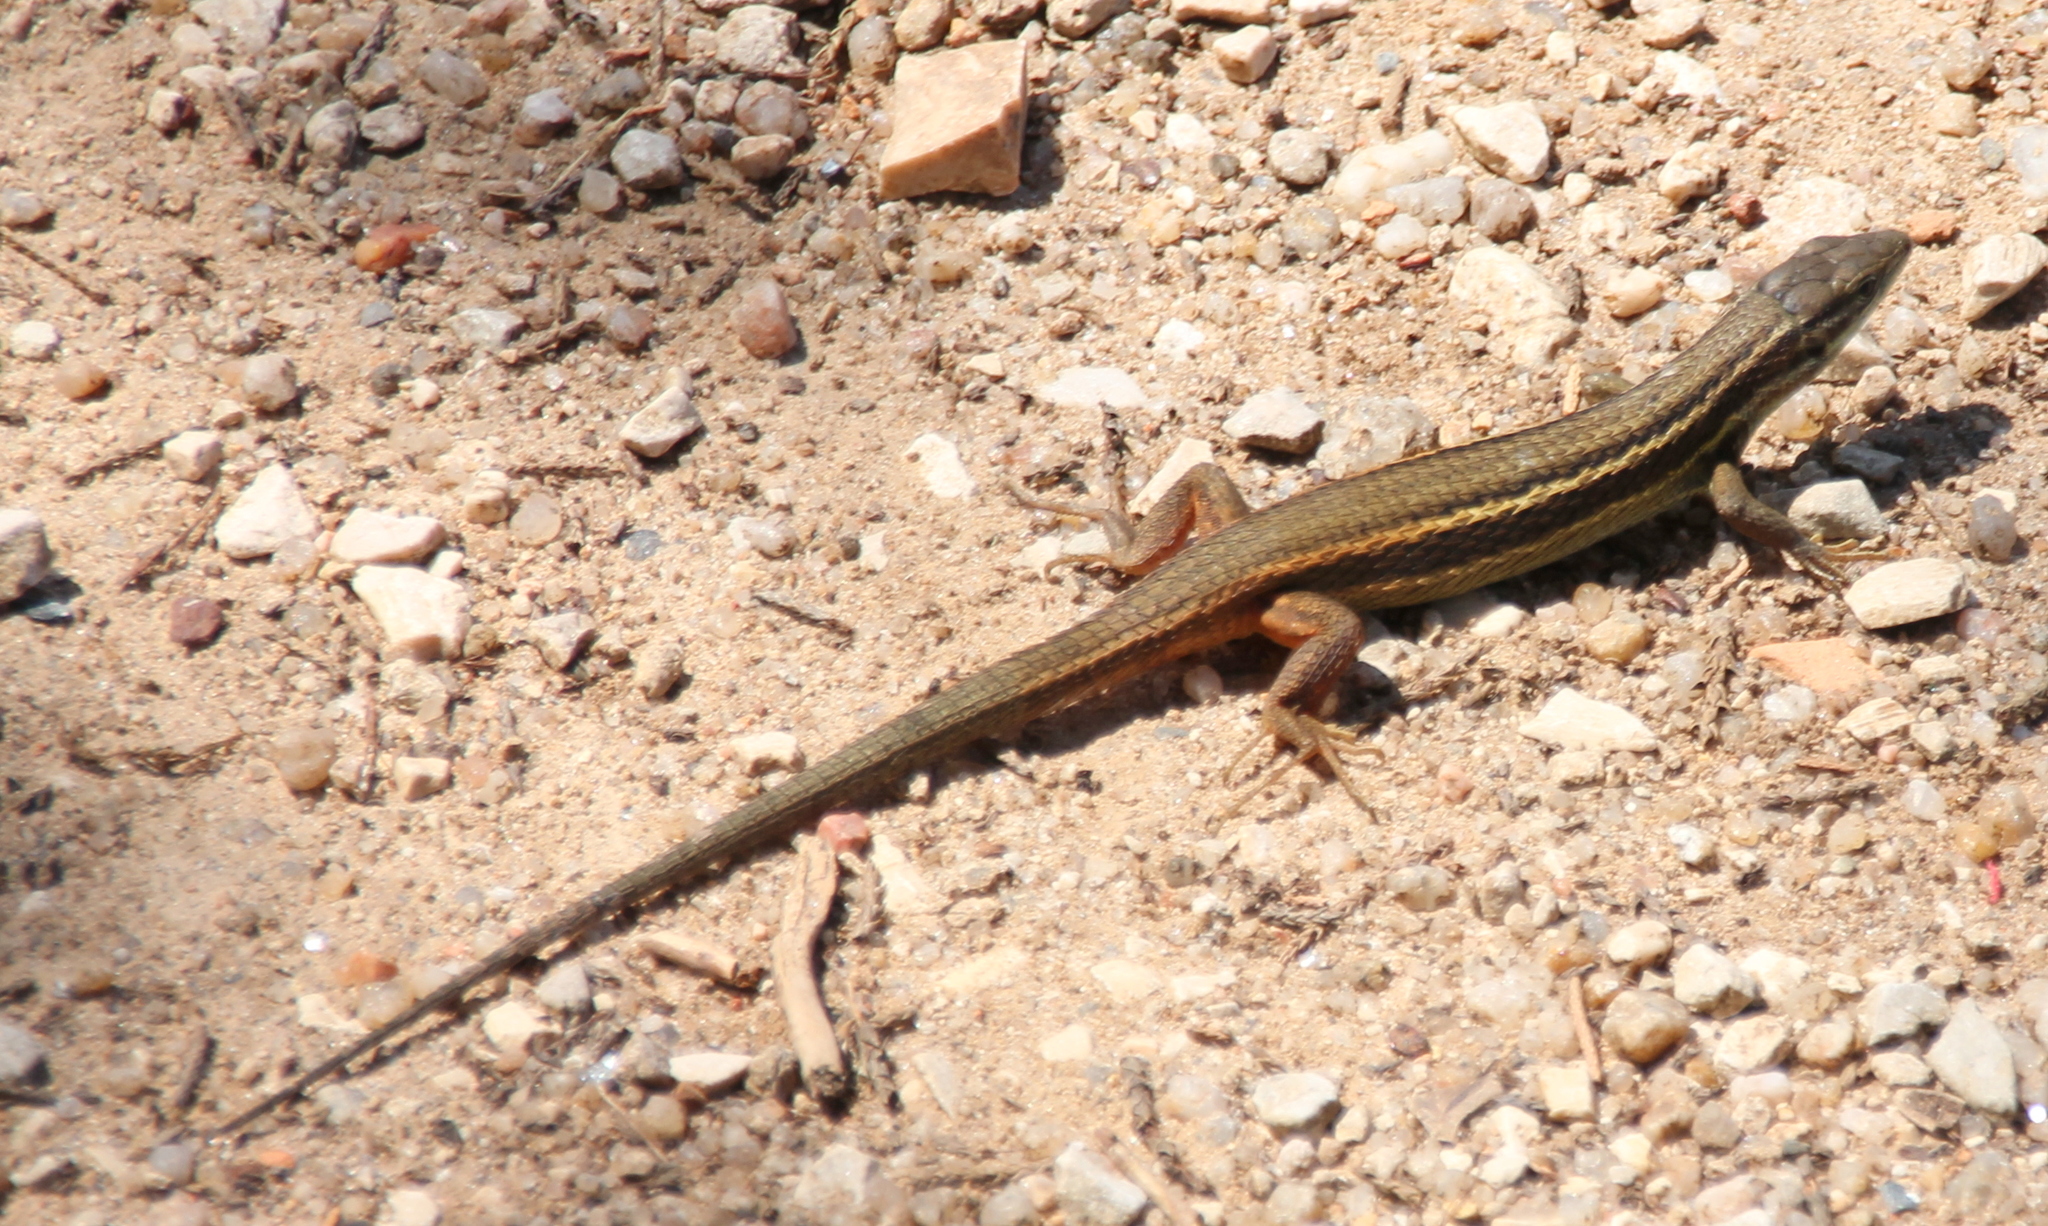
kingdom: Animalia
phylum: Chordata
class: Squamata
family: Lacertidae
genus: Psammodromus
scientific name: Psammodromus algirus
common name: Algerian psammodromus
